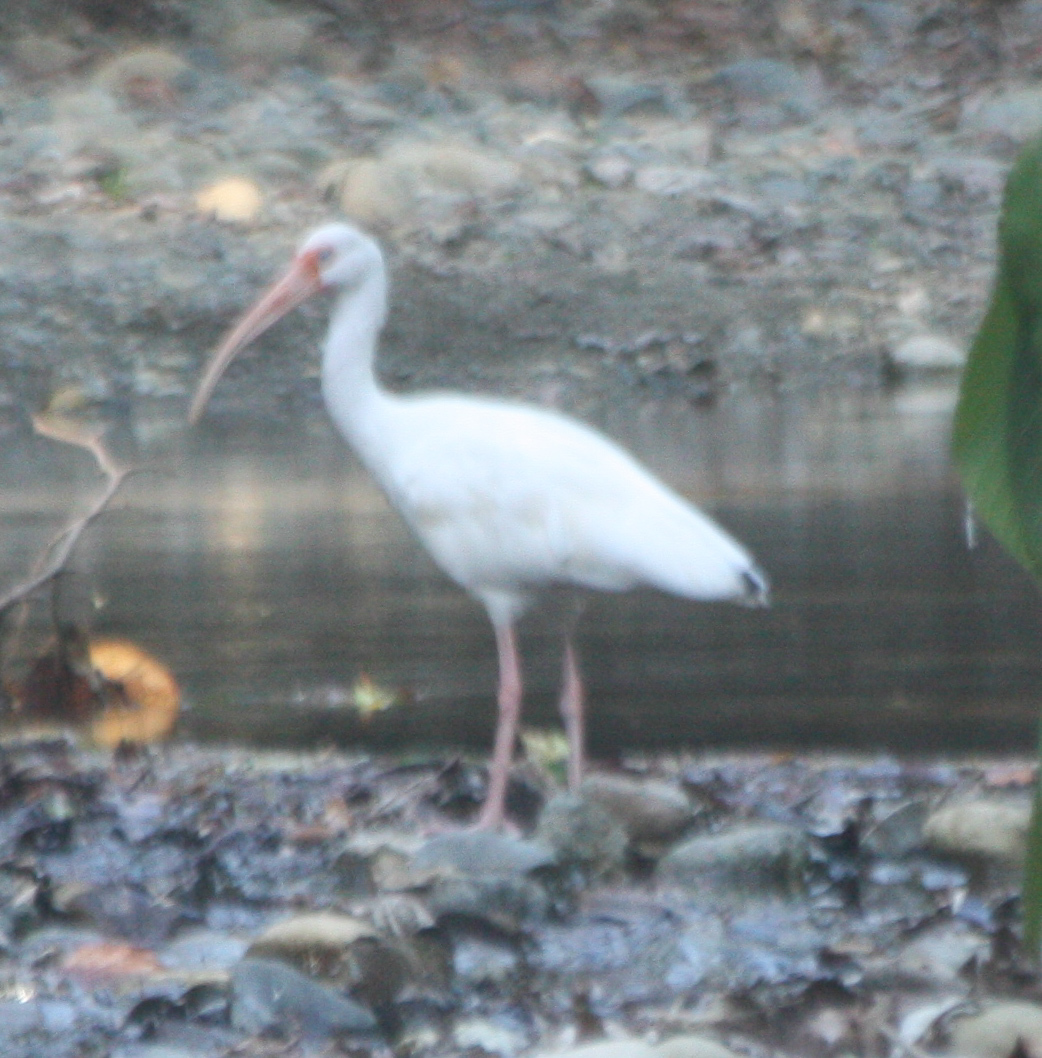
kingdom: Animalia
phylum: Chordata
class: Aves
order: Pelecaniformes
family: Threskiornithidae
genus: Eudocimus
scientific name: Eudocimus albus
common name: White ibis
